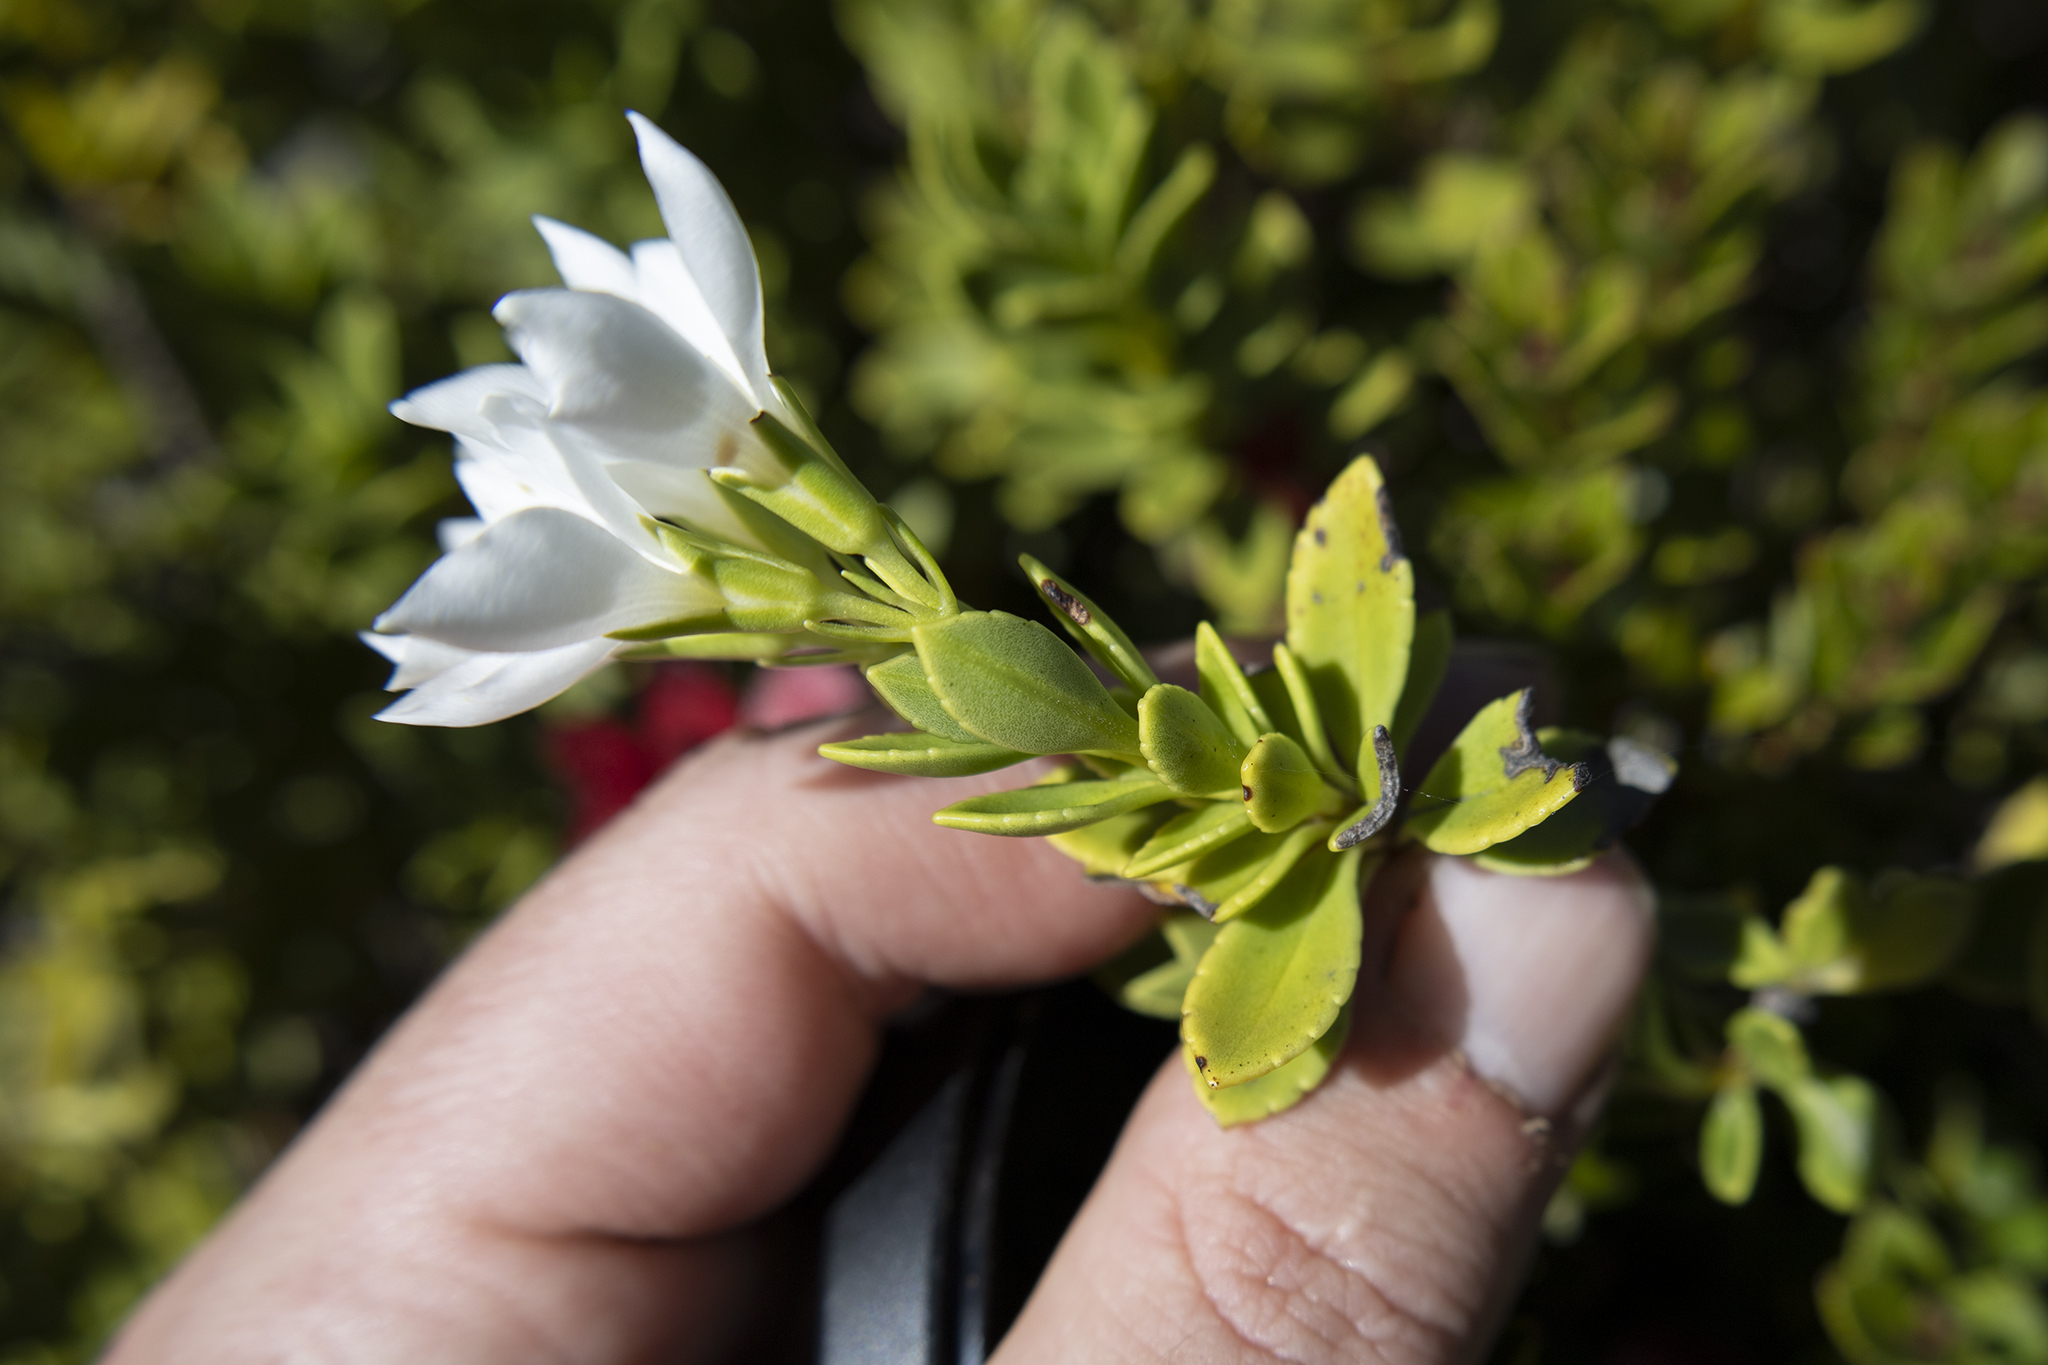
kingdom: Plantae
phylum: Tracheophyta
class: Magnoliopsida
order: Lamiales
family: Plantaginaceae
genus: Veronica
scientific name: Veronica macrantha
